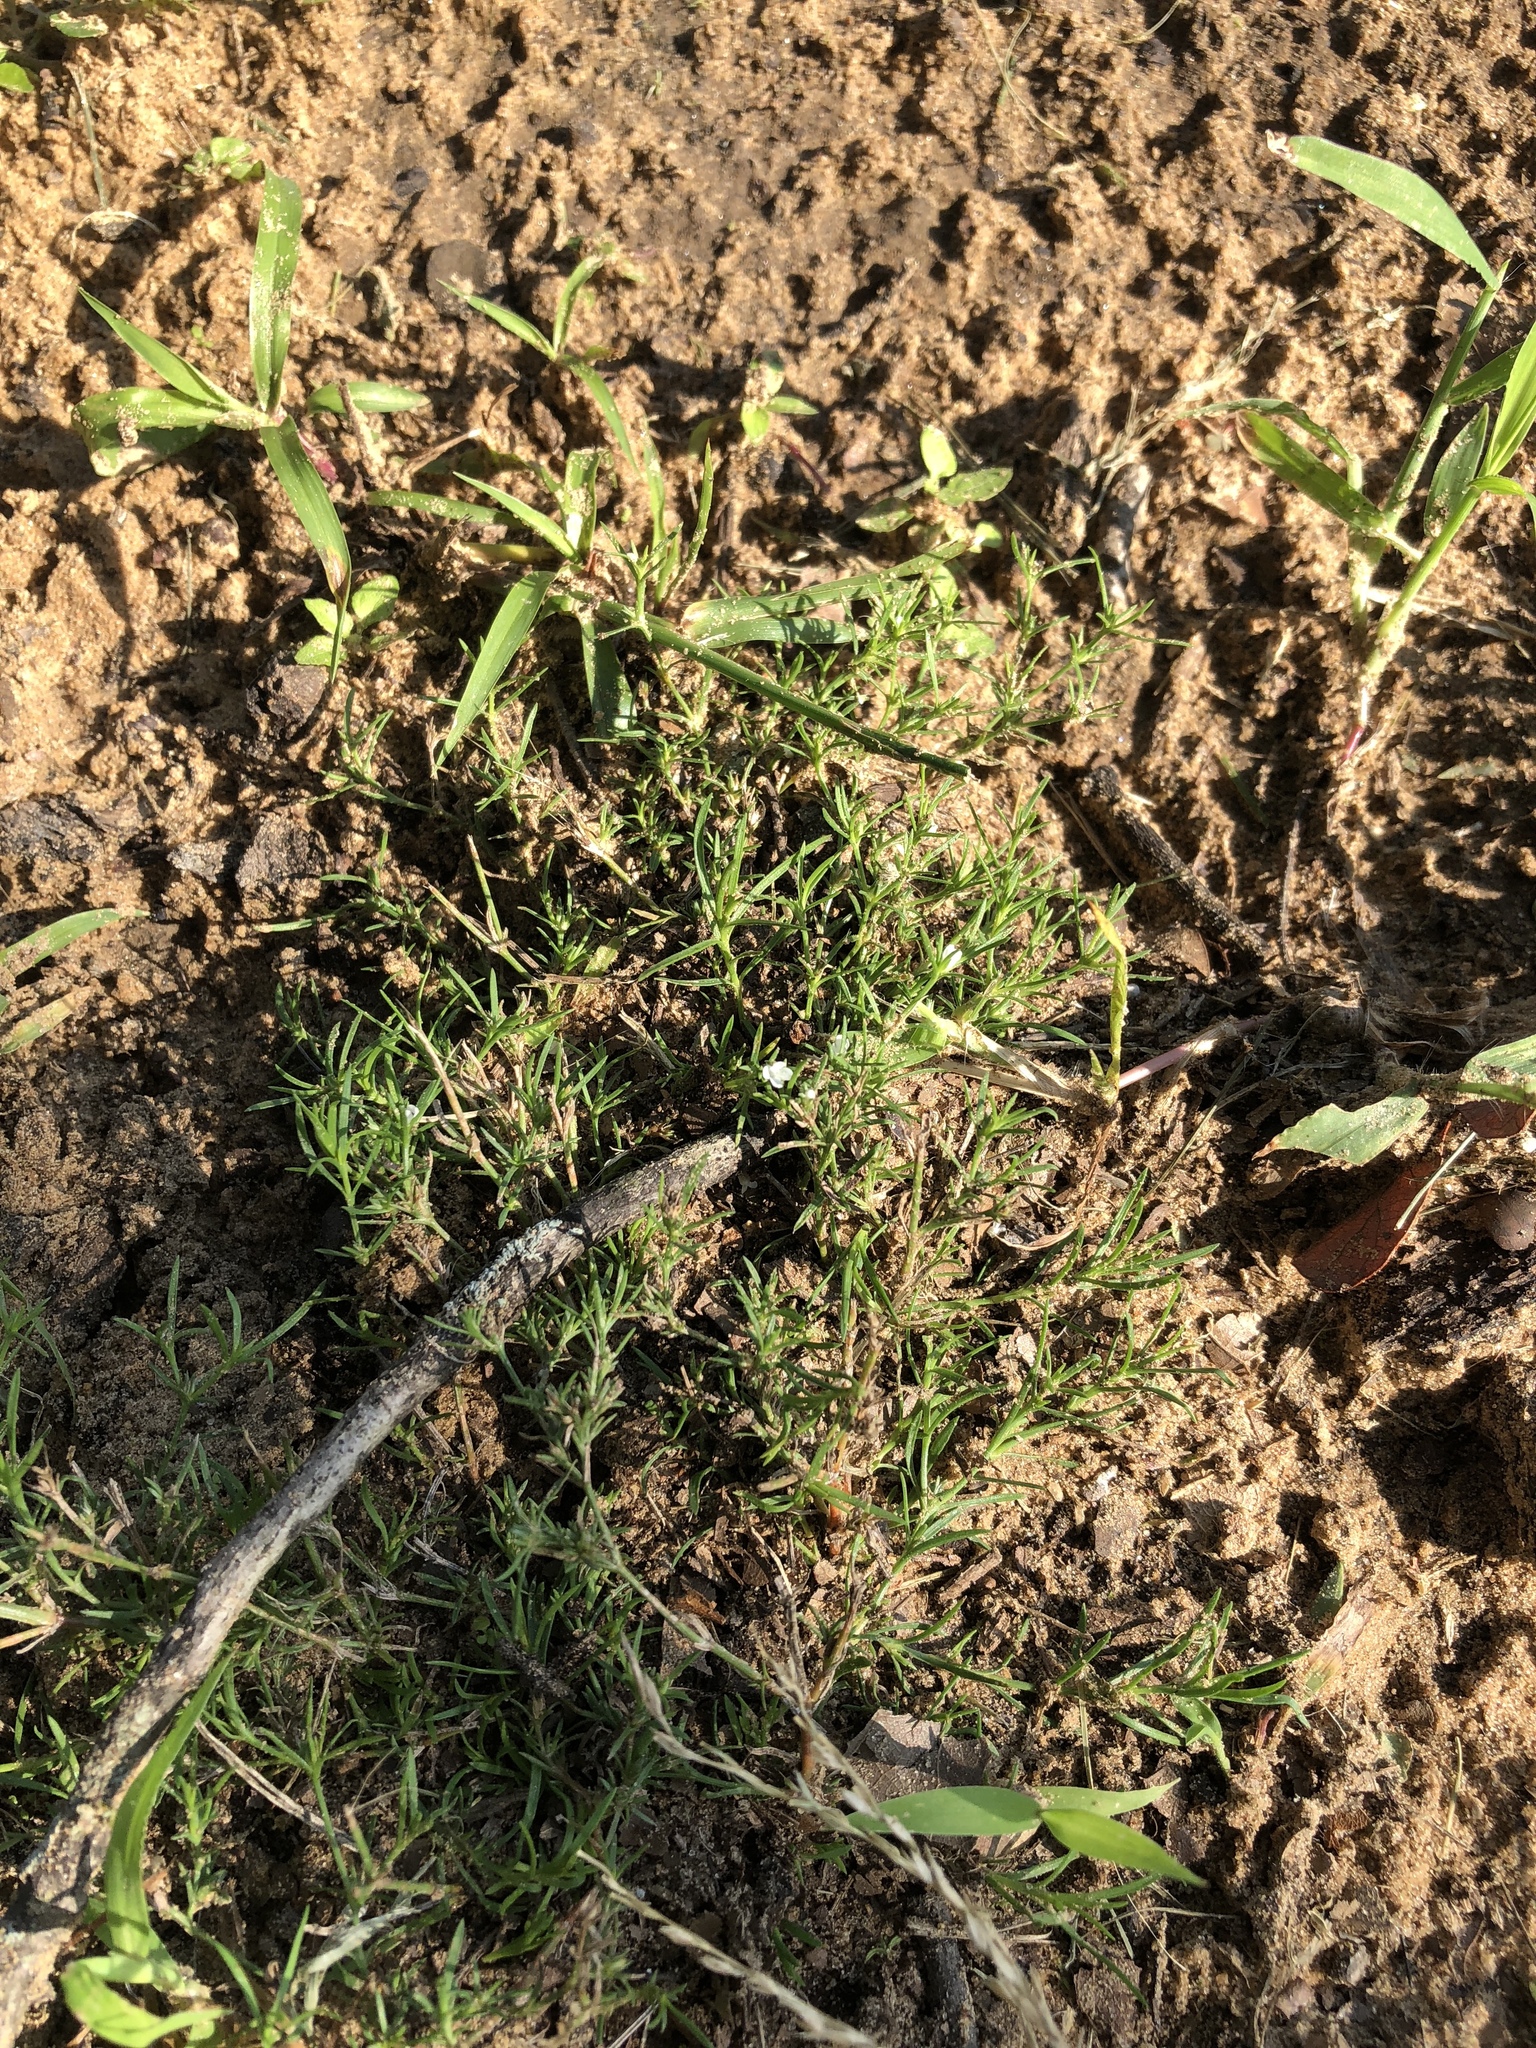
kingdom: Plantae
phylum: Tracheophyta
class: Magnoliopsida
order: Lamiales
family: Tetrachondraceae
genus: Polypremum
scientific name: Polypremum procumbens
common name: Juniper-leaf
